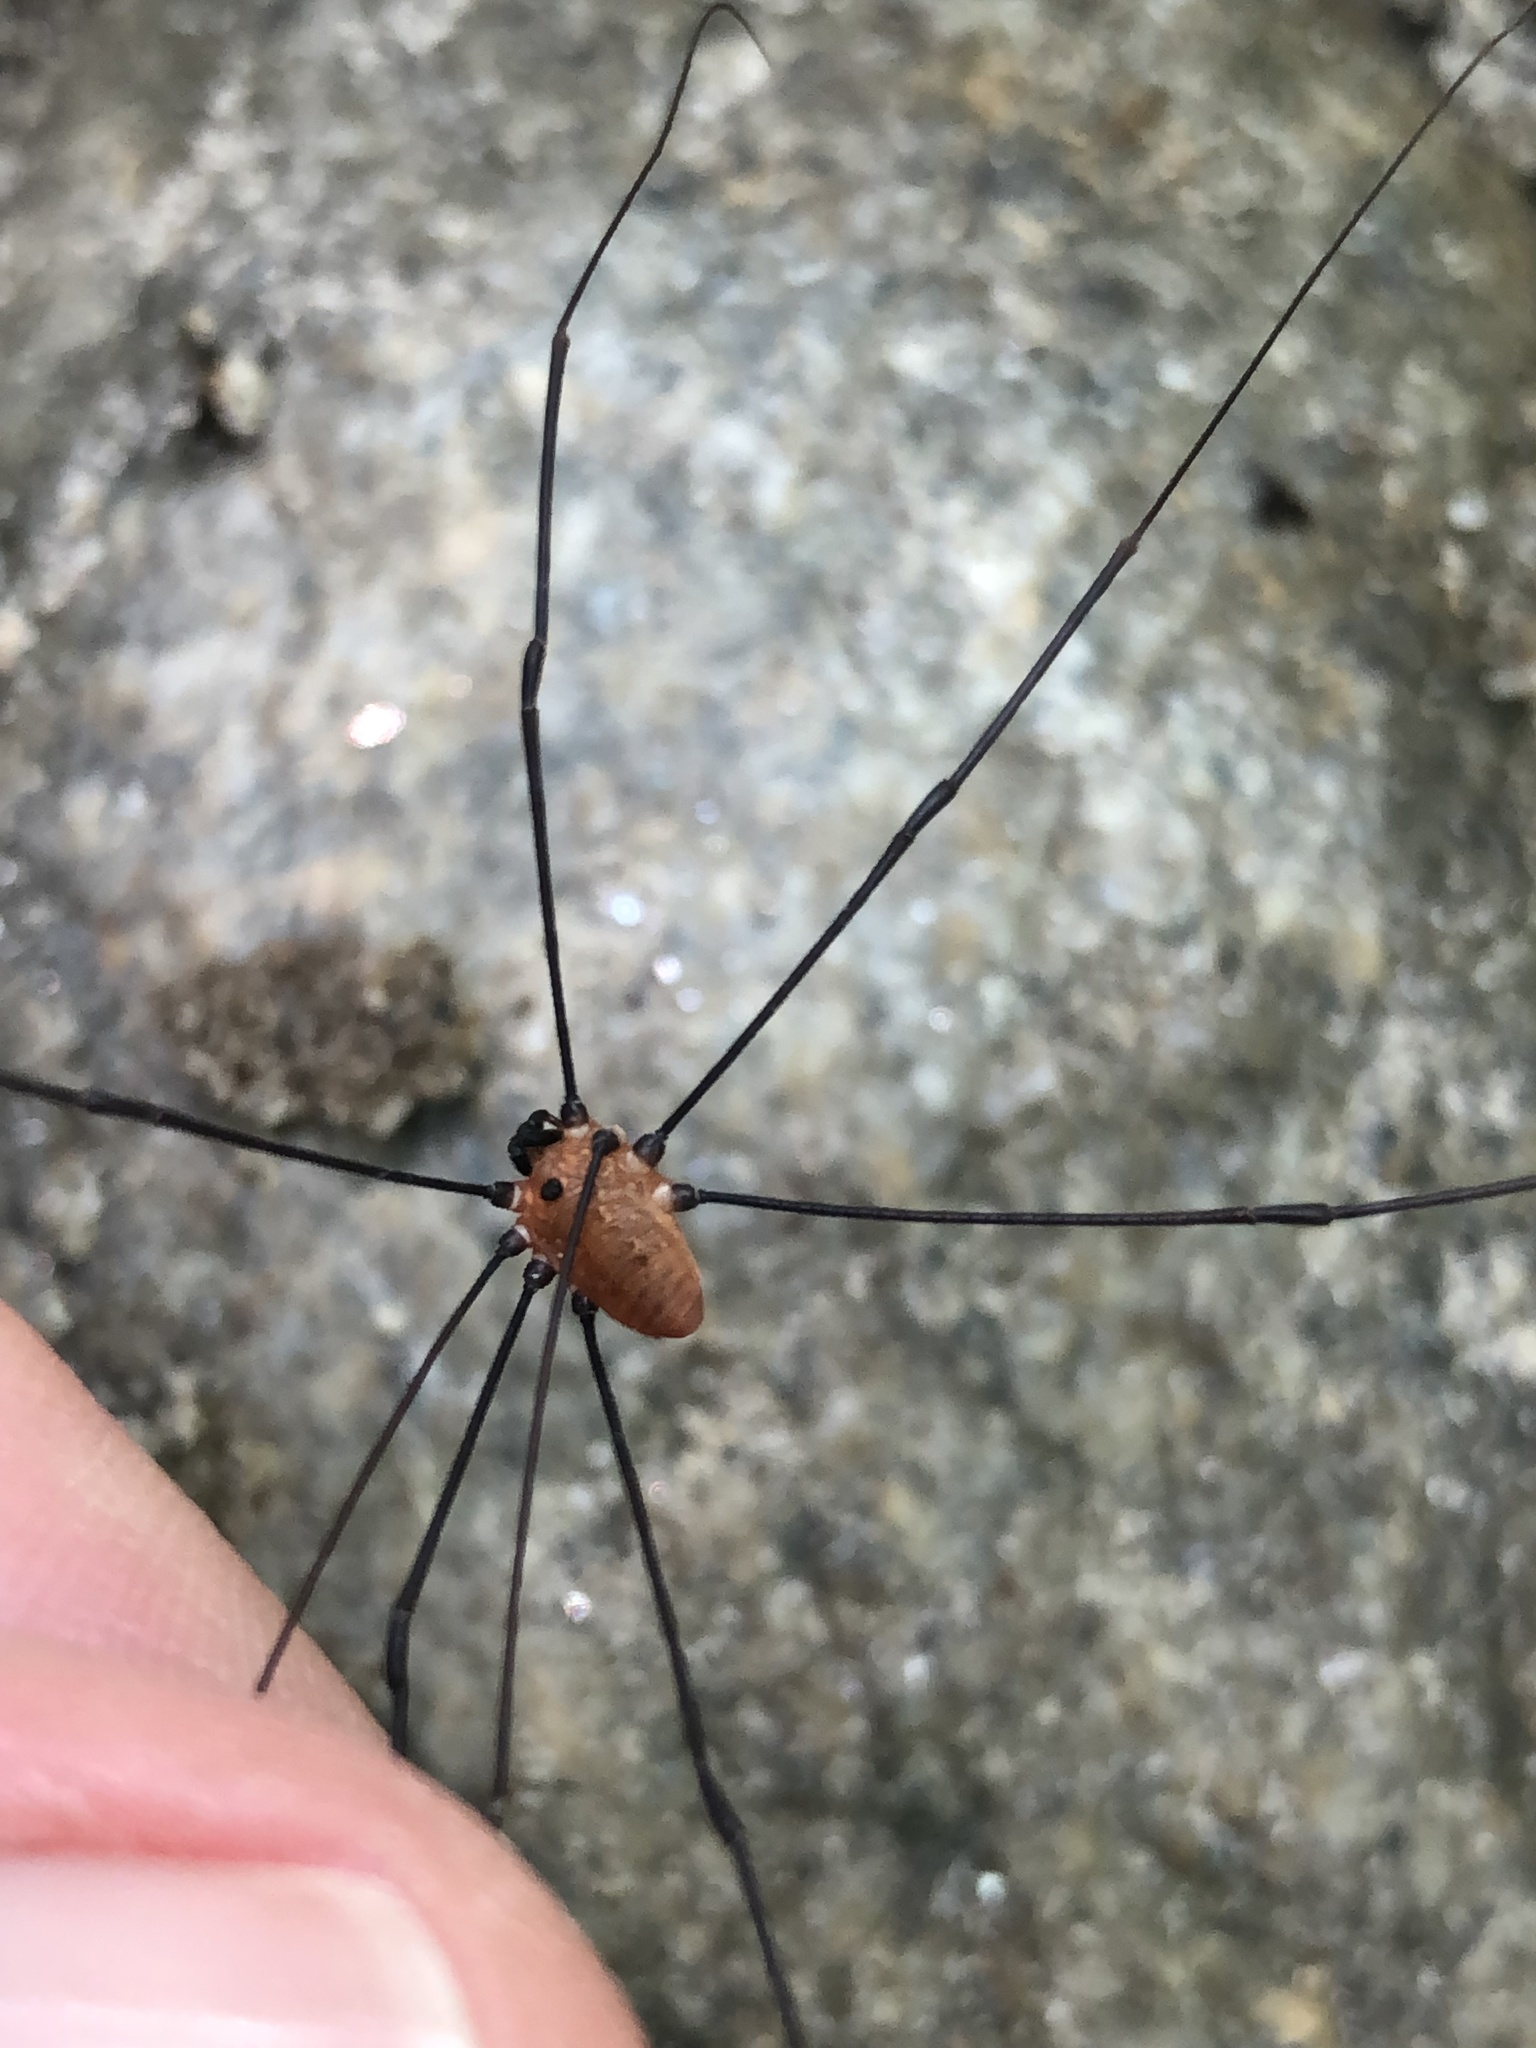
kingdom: Animalia
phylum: Arthropoda
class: Arachnida
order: Opiliones
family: Sclerosomatidae
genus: Leiobunum
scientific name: Leiobunum nigropalpi
